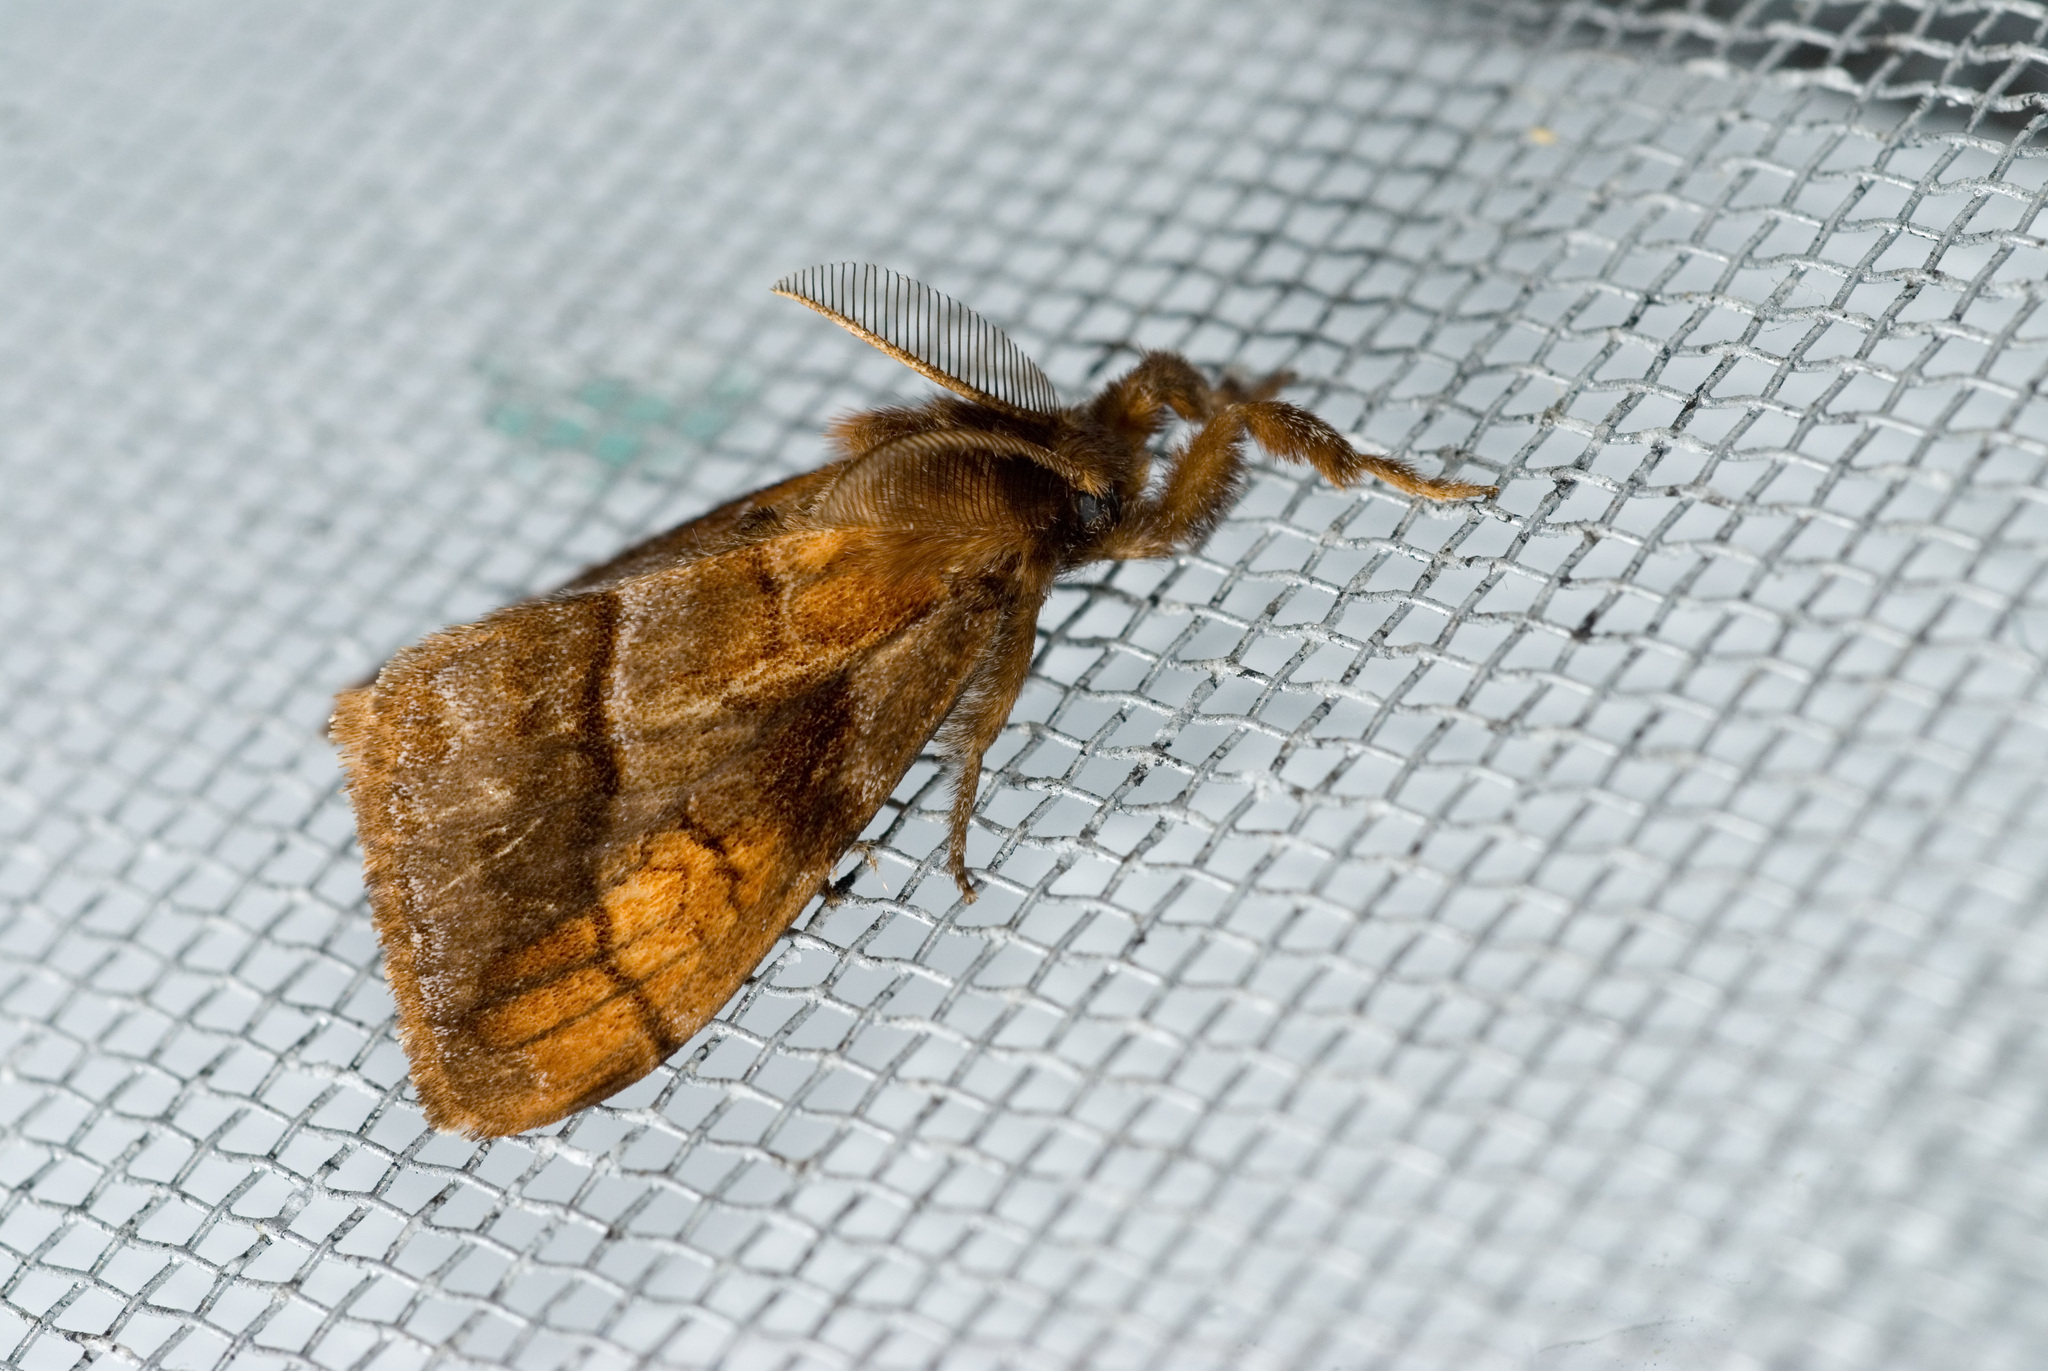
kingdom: Animalia
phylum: Arthropoda
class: Insecta
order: Lepidoptera
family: Erebidae
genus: Cifuna
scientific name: Cifuna locuples
